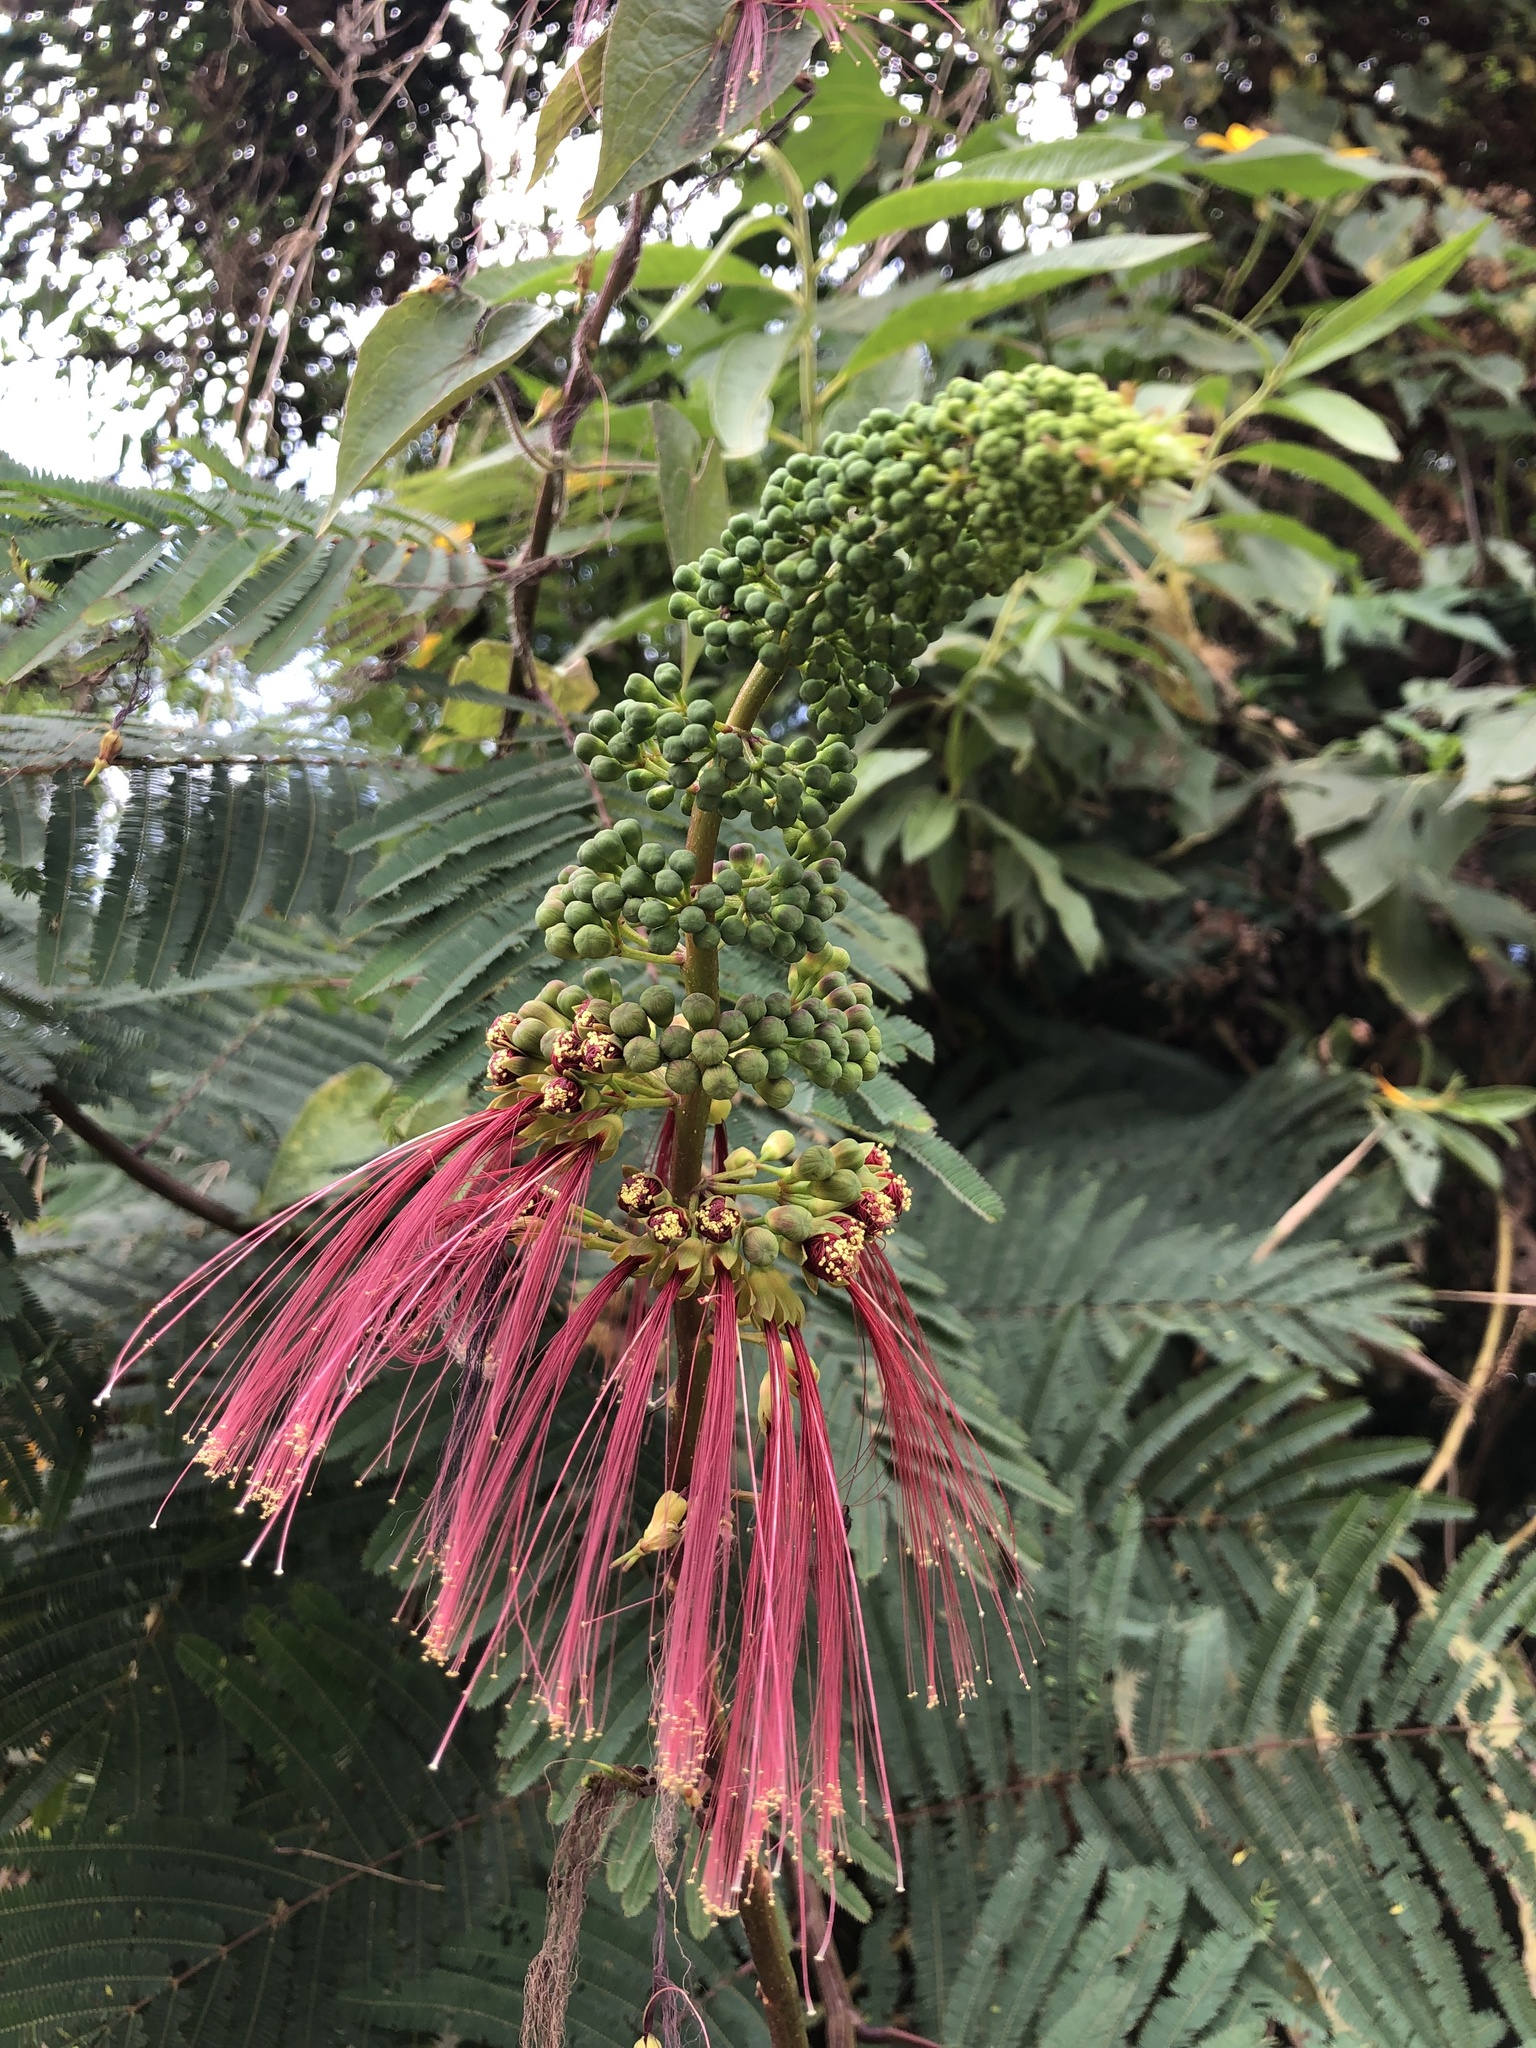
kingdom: Plantae
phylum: Tracheophyta
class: Magnoliopsida
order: Fabales
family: Fabaceae
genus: Calliandra
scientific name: Calliandra houstoniana
